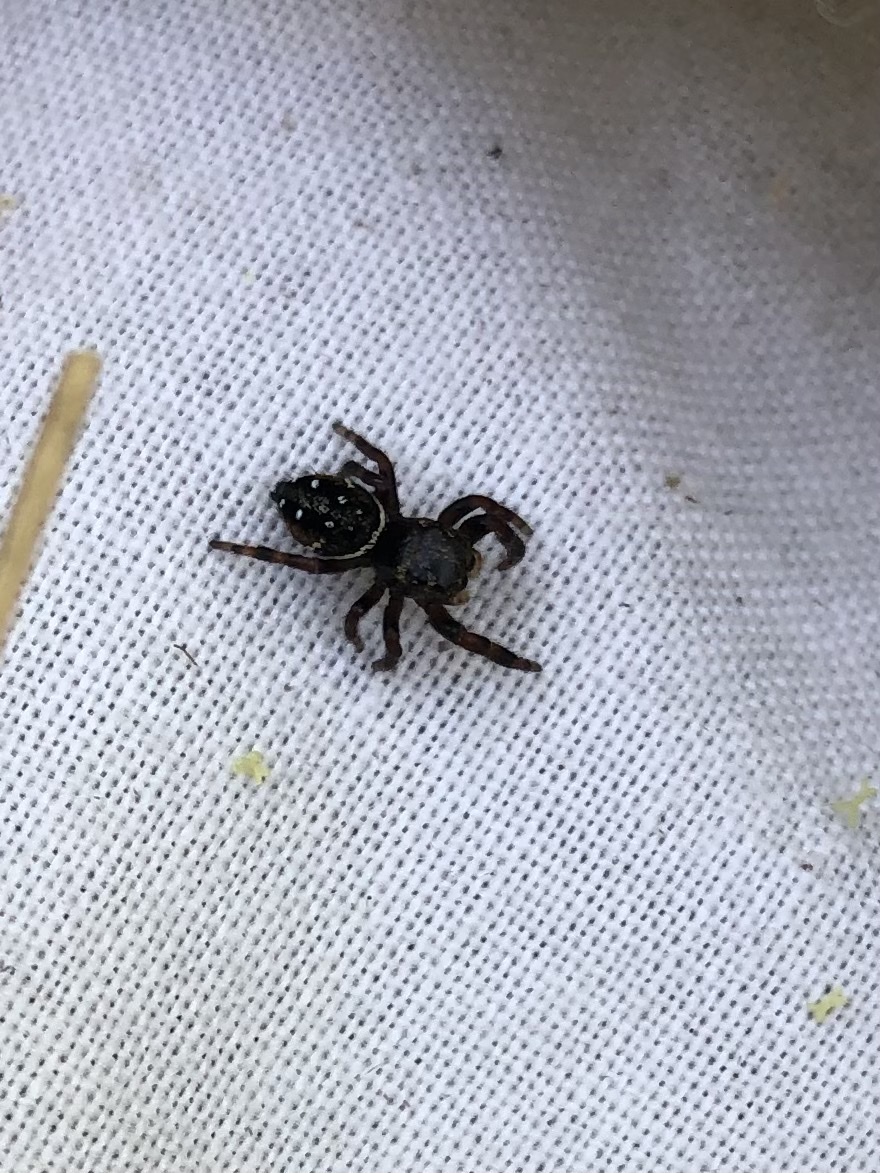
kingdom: Animalia
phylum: Arthropoda
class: Arachnida
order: Araneae
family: Salticidae
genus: Phidippus
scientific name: Phidippus clarus
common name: Brilliant jumping spider
